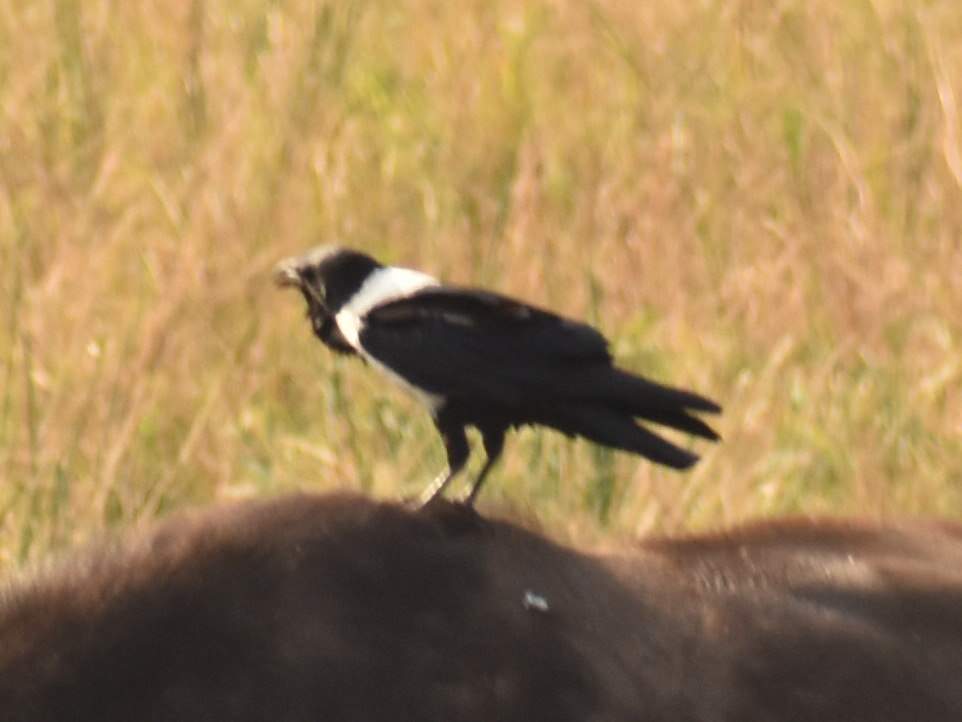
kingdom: Animalia
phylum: Chordata
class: Aves
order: Passeriformes
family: Corvidae
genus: Corvus
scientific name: Corvus albus
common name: Pied crow
